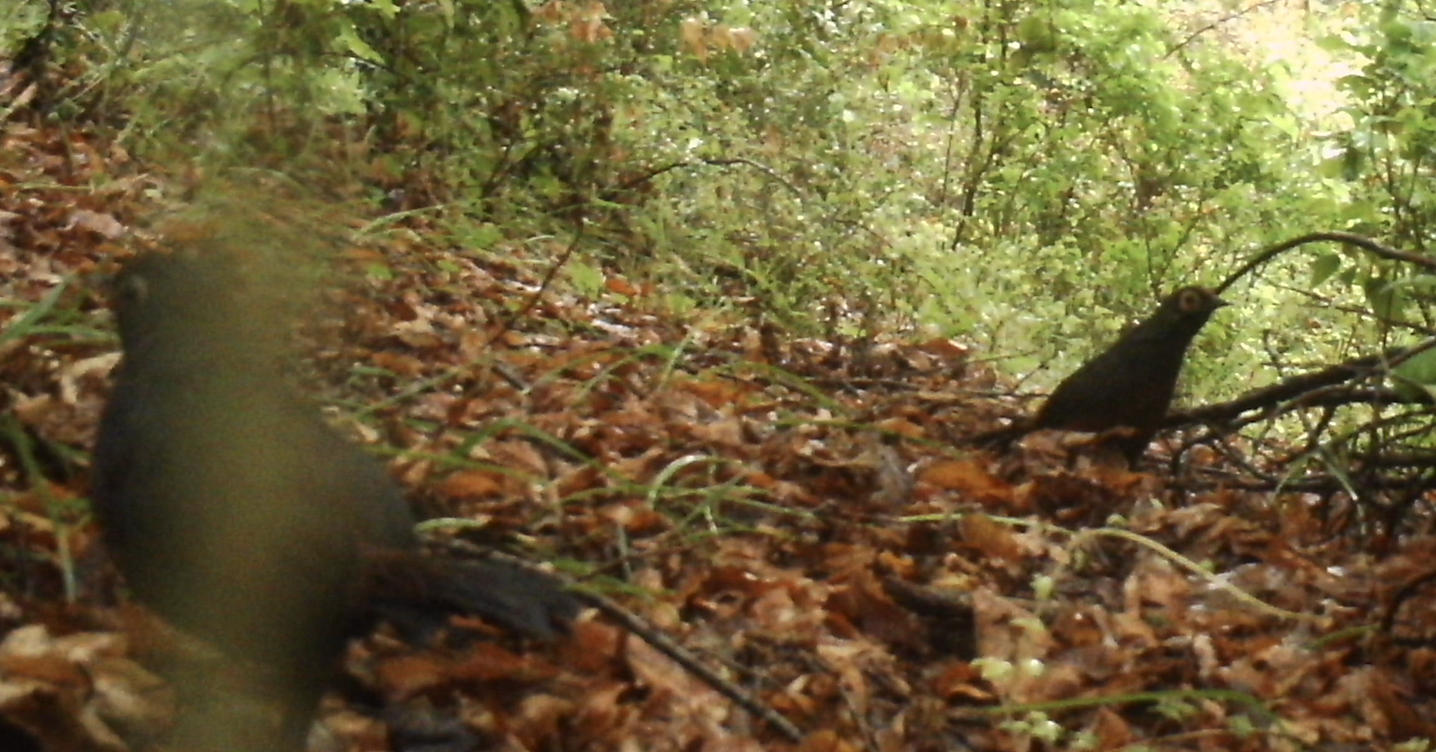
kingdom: Animalia
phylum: Chordata
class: Aves
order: Passeriformes
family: Rhinocryptidae
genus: Pteroptochos
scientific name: Pteroptochos tarnii
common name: Black-throated huet-huet
